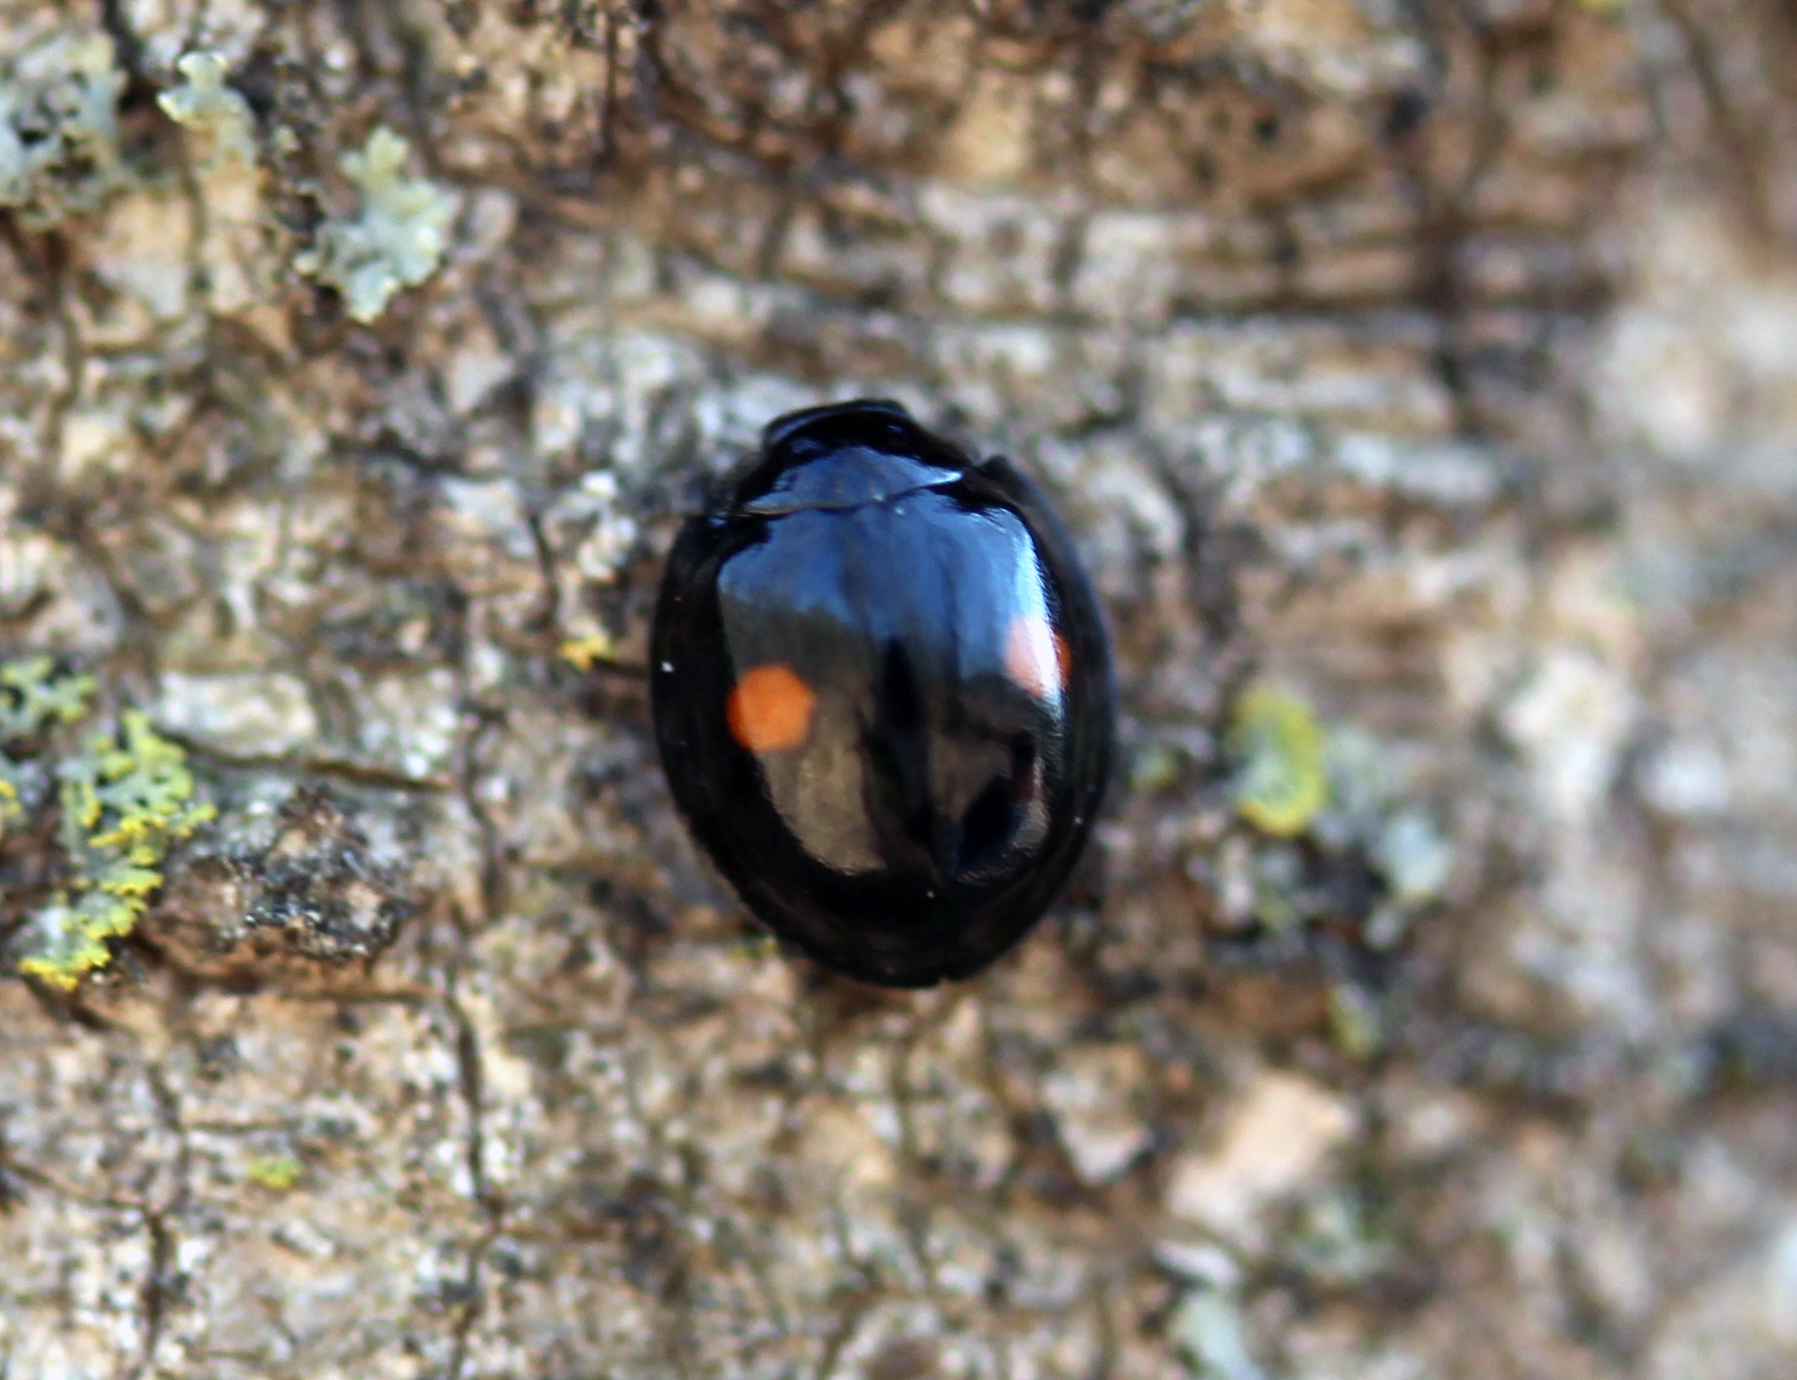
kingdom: Animalia
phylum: Arthropoda
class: Insecta
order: Coleoptera
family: Coccinellidae
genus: Chilocorus
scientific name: Chilocorus stigma
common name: Twicestabbed lady beetle
